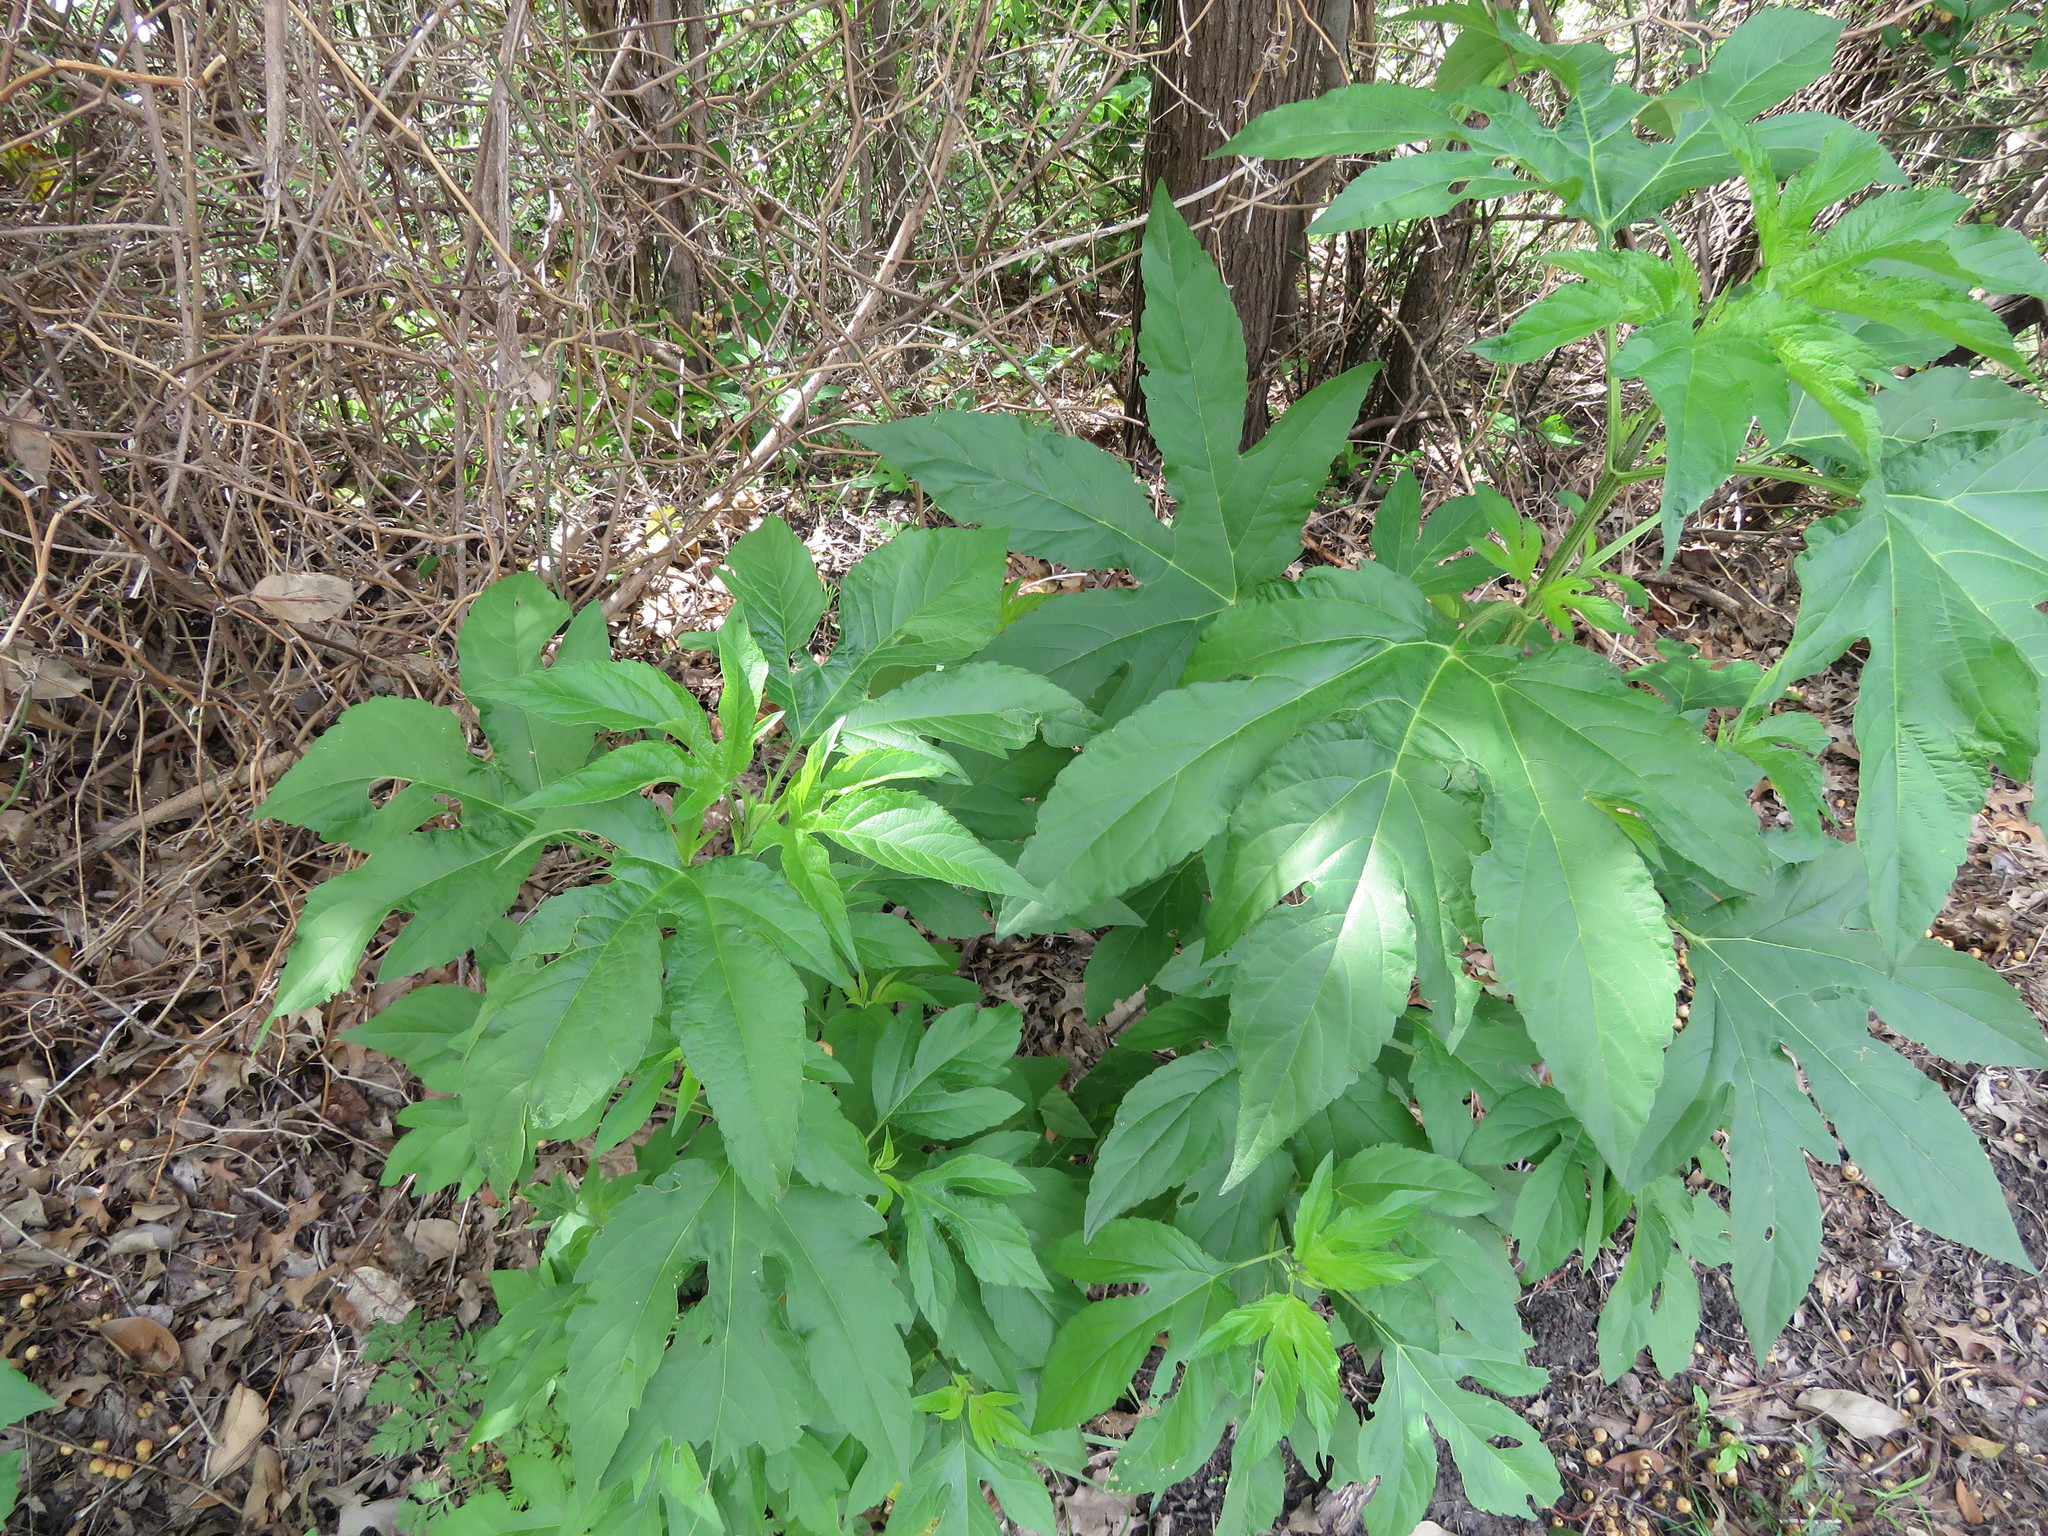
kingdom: Plantae
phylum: Tracheophyta
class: Magnoliopsida
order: Asterales
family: Asteraceae
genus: Ambrosia
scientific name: Ambrosia trifida
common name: Giant ragweed
